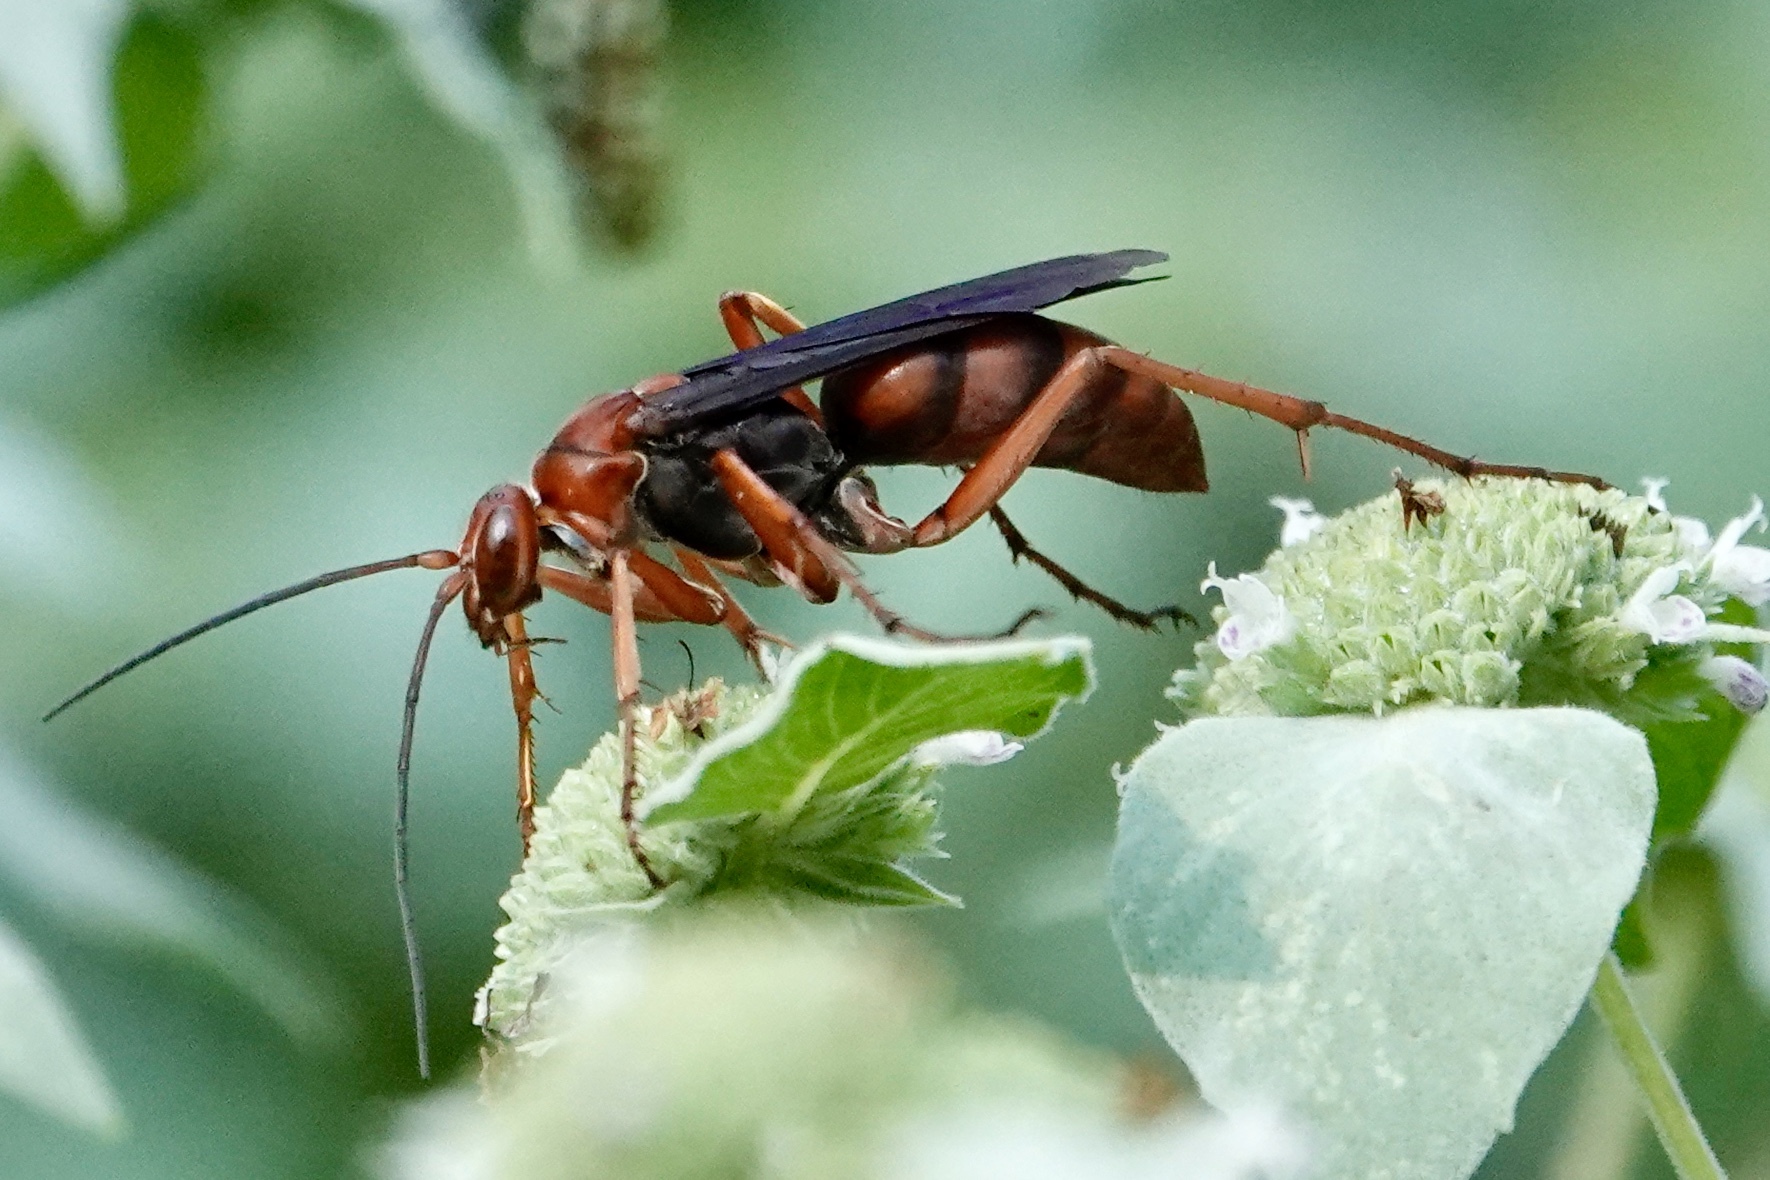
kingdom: Animalia
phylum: Arthropoda
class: Insecta
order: Hymenoptera
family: Pompilidae
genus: Tachypompilus
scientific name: Tachypompilus ferrugineus
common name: Rusty spider wasp
